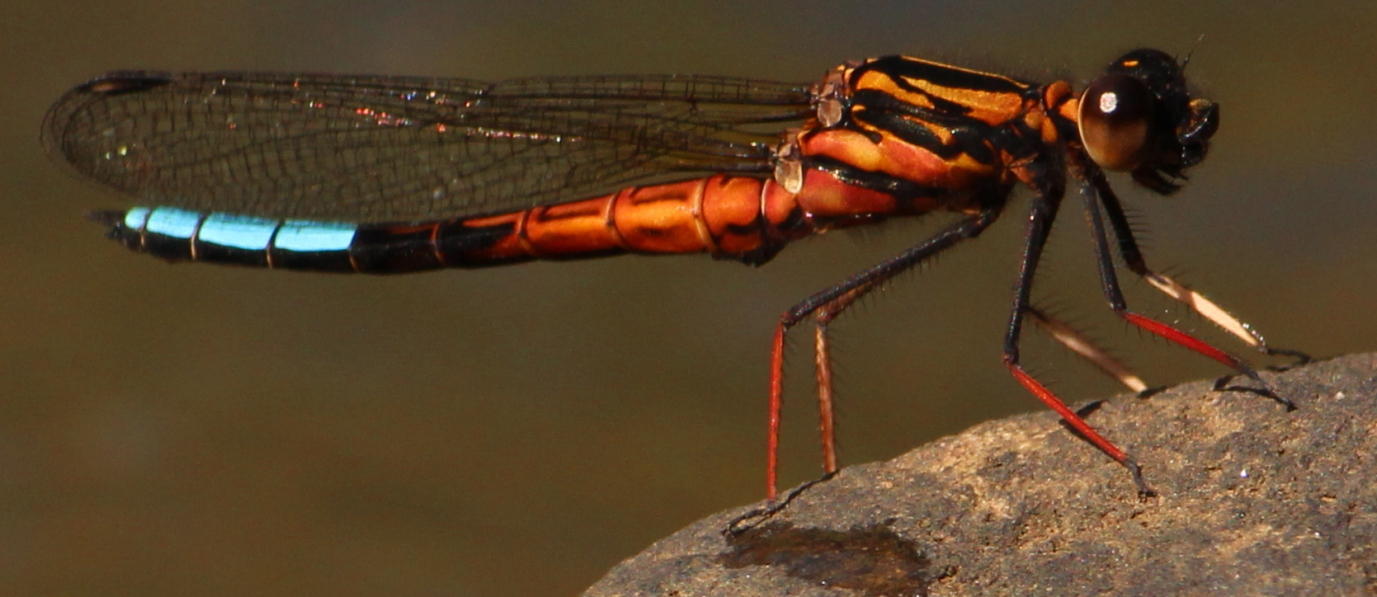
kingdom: Animalia
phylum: Arthropoda
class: Insecta
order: Odonata
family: Chlorocyphidae
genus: Platycypha
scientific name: Platycypha fitzsimonsi
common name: Boulder jewel
